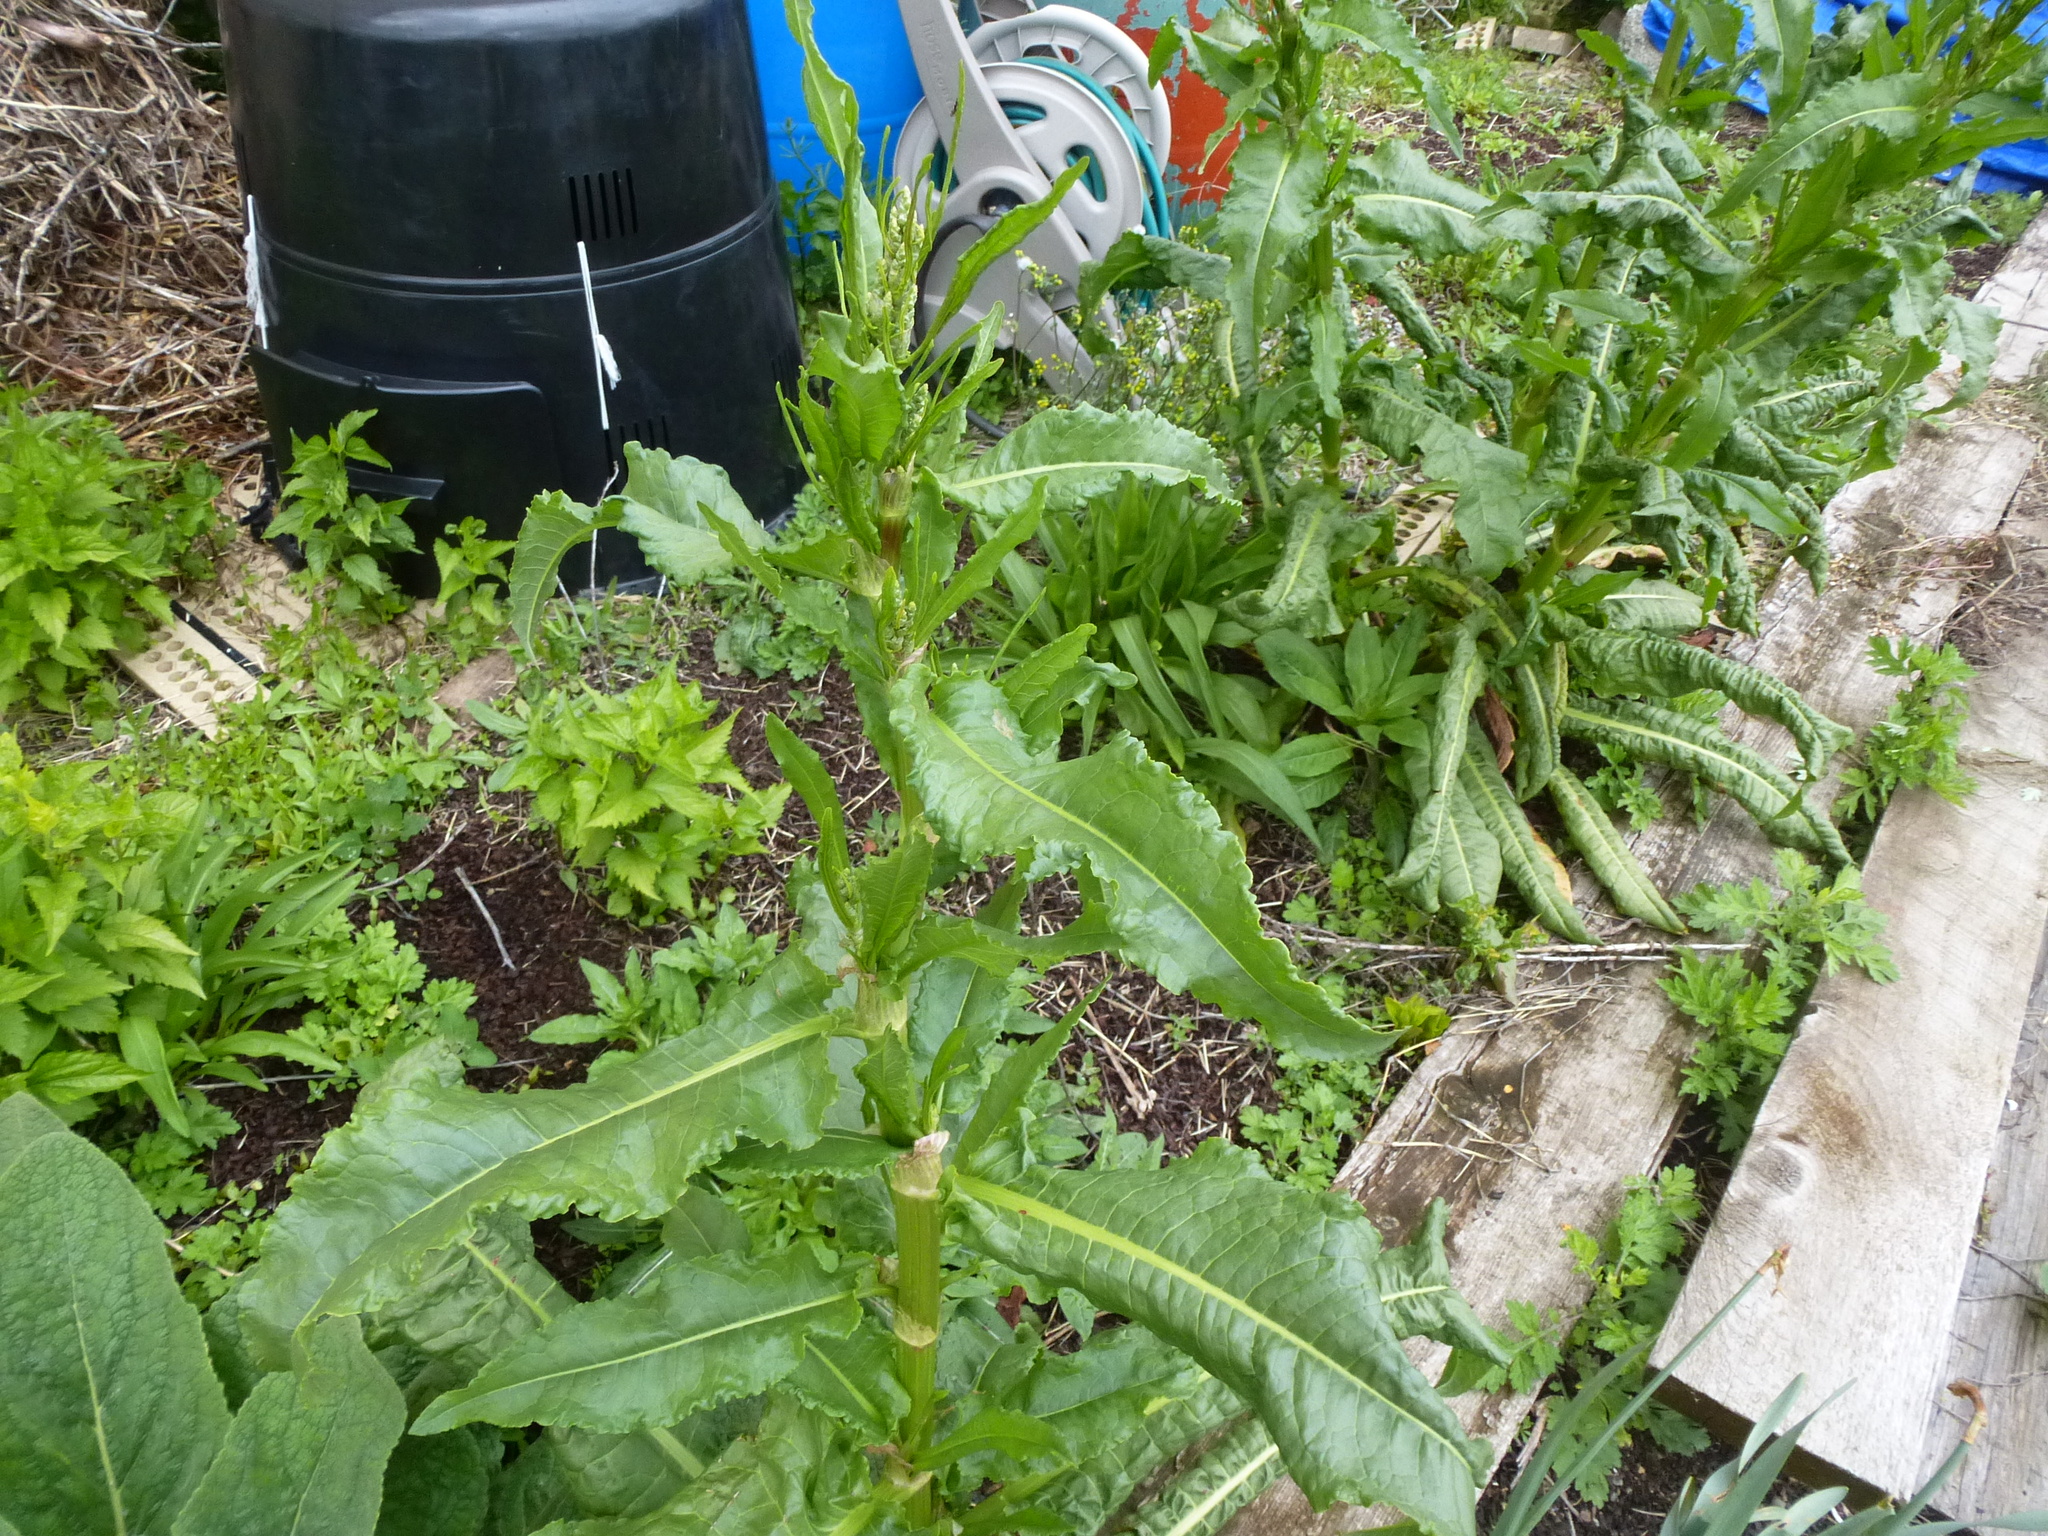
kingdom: Plantae
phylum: Tracheophyta
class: Magnoliopsida
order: Caryophyllales
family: Polygonaceae
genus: Rumex
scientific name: Rumex crispus
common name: Curled dock
